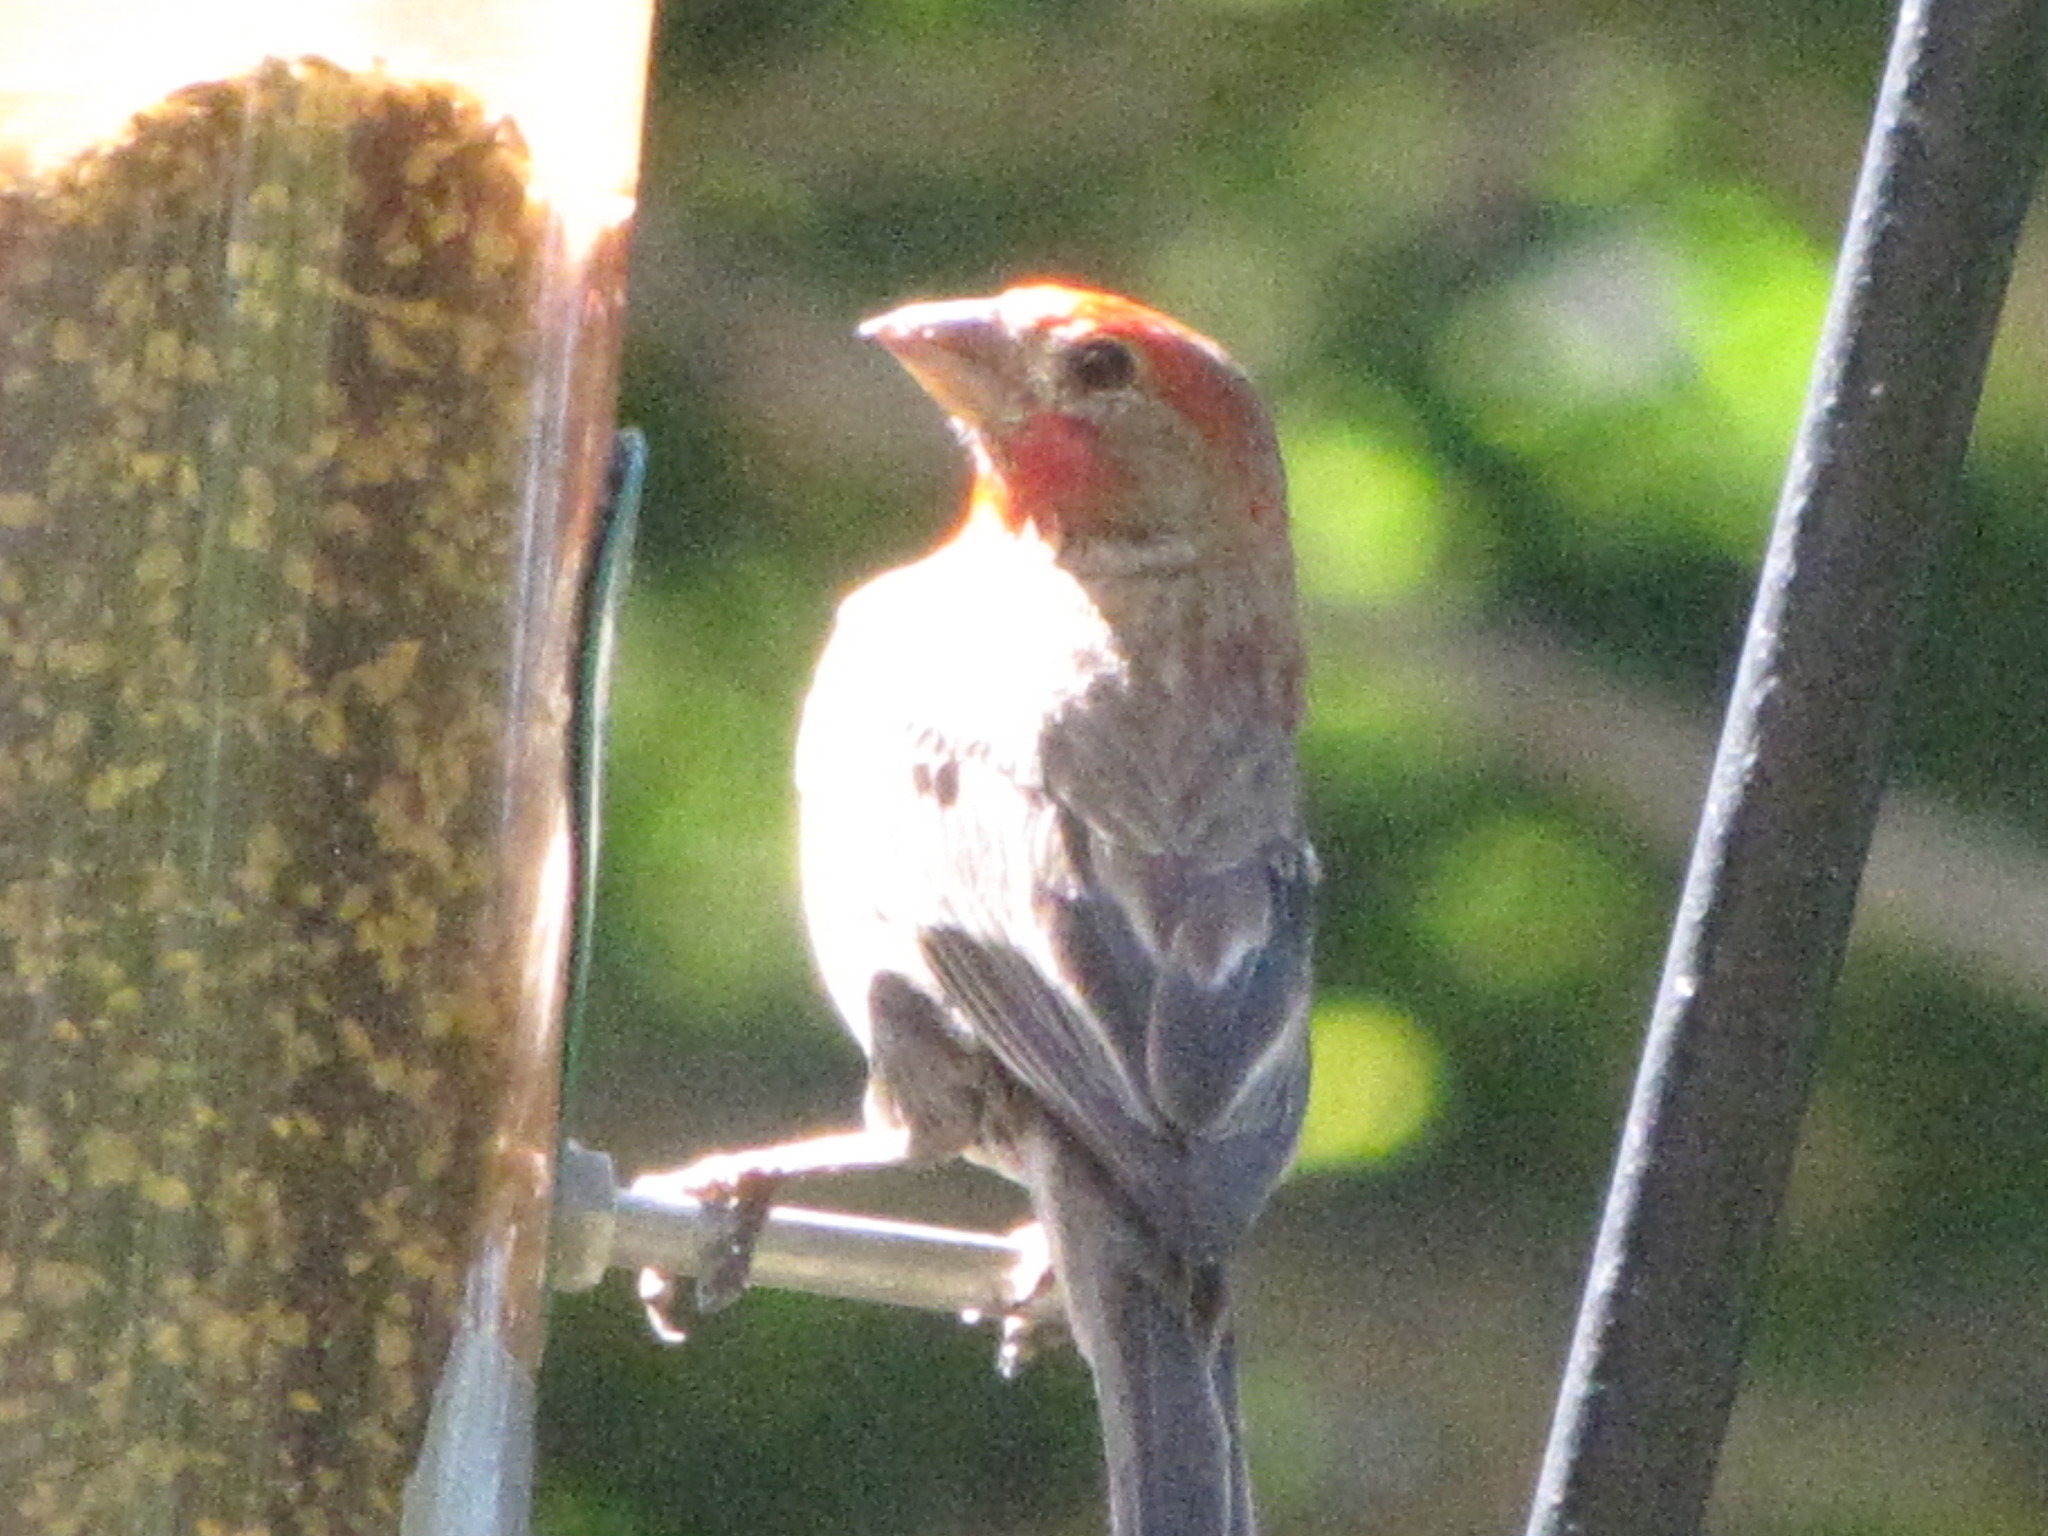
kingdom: Animalia
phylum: Chordata
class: Aves
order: Passeriformes
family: Fringillidae
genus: Haemorhous
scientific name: Haemorhous mexicanus
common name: House finch
